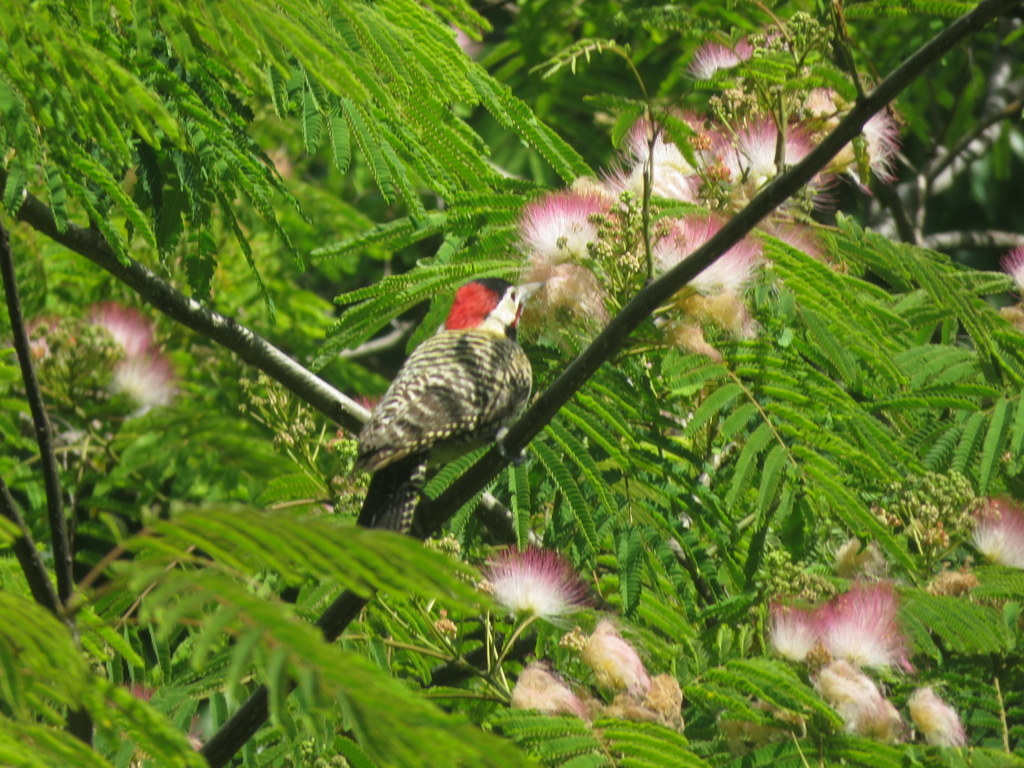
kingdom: Animalia
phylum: Chordata
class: Aves
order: Piciformes
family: Picidae
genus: Colaptes
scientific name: Colaptes melanochloros
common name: Green-barred woodpecker
